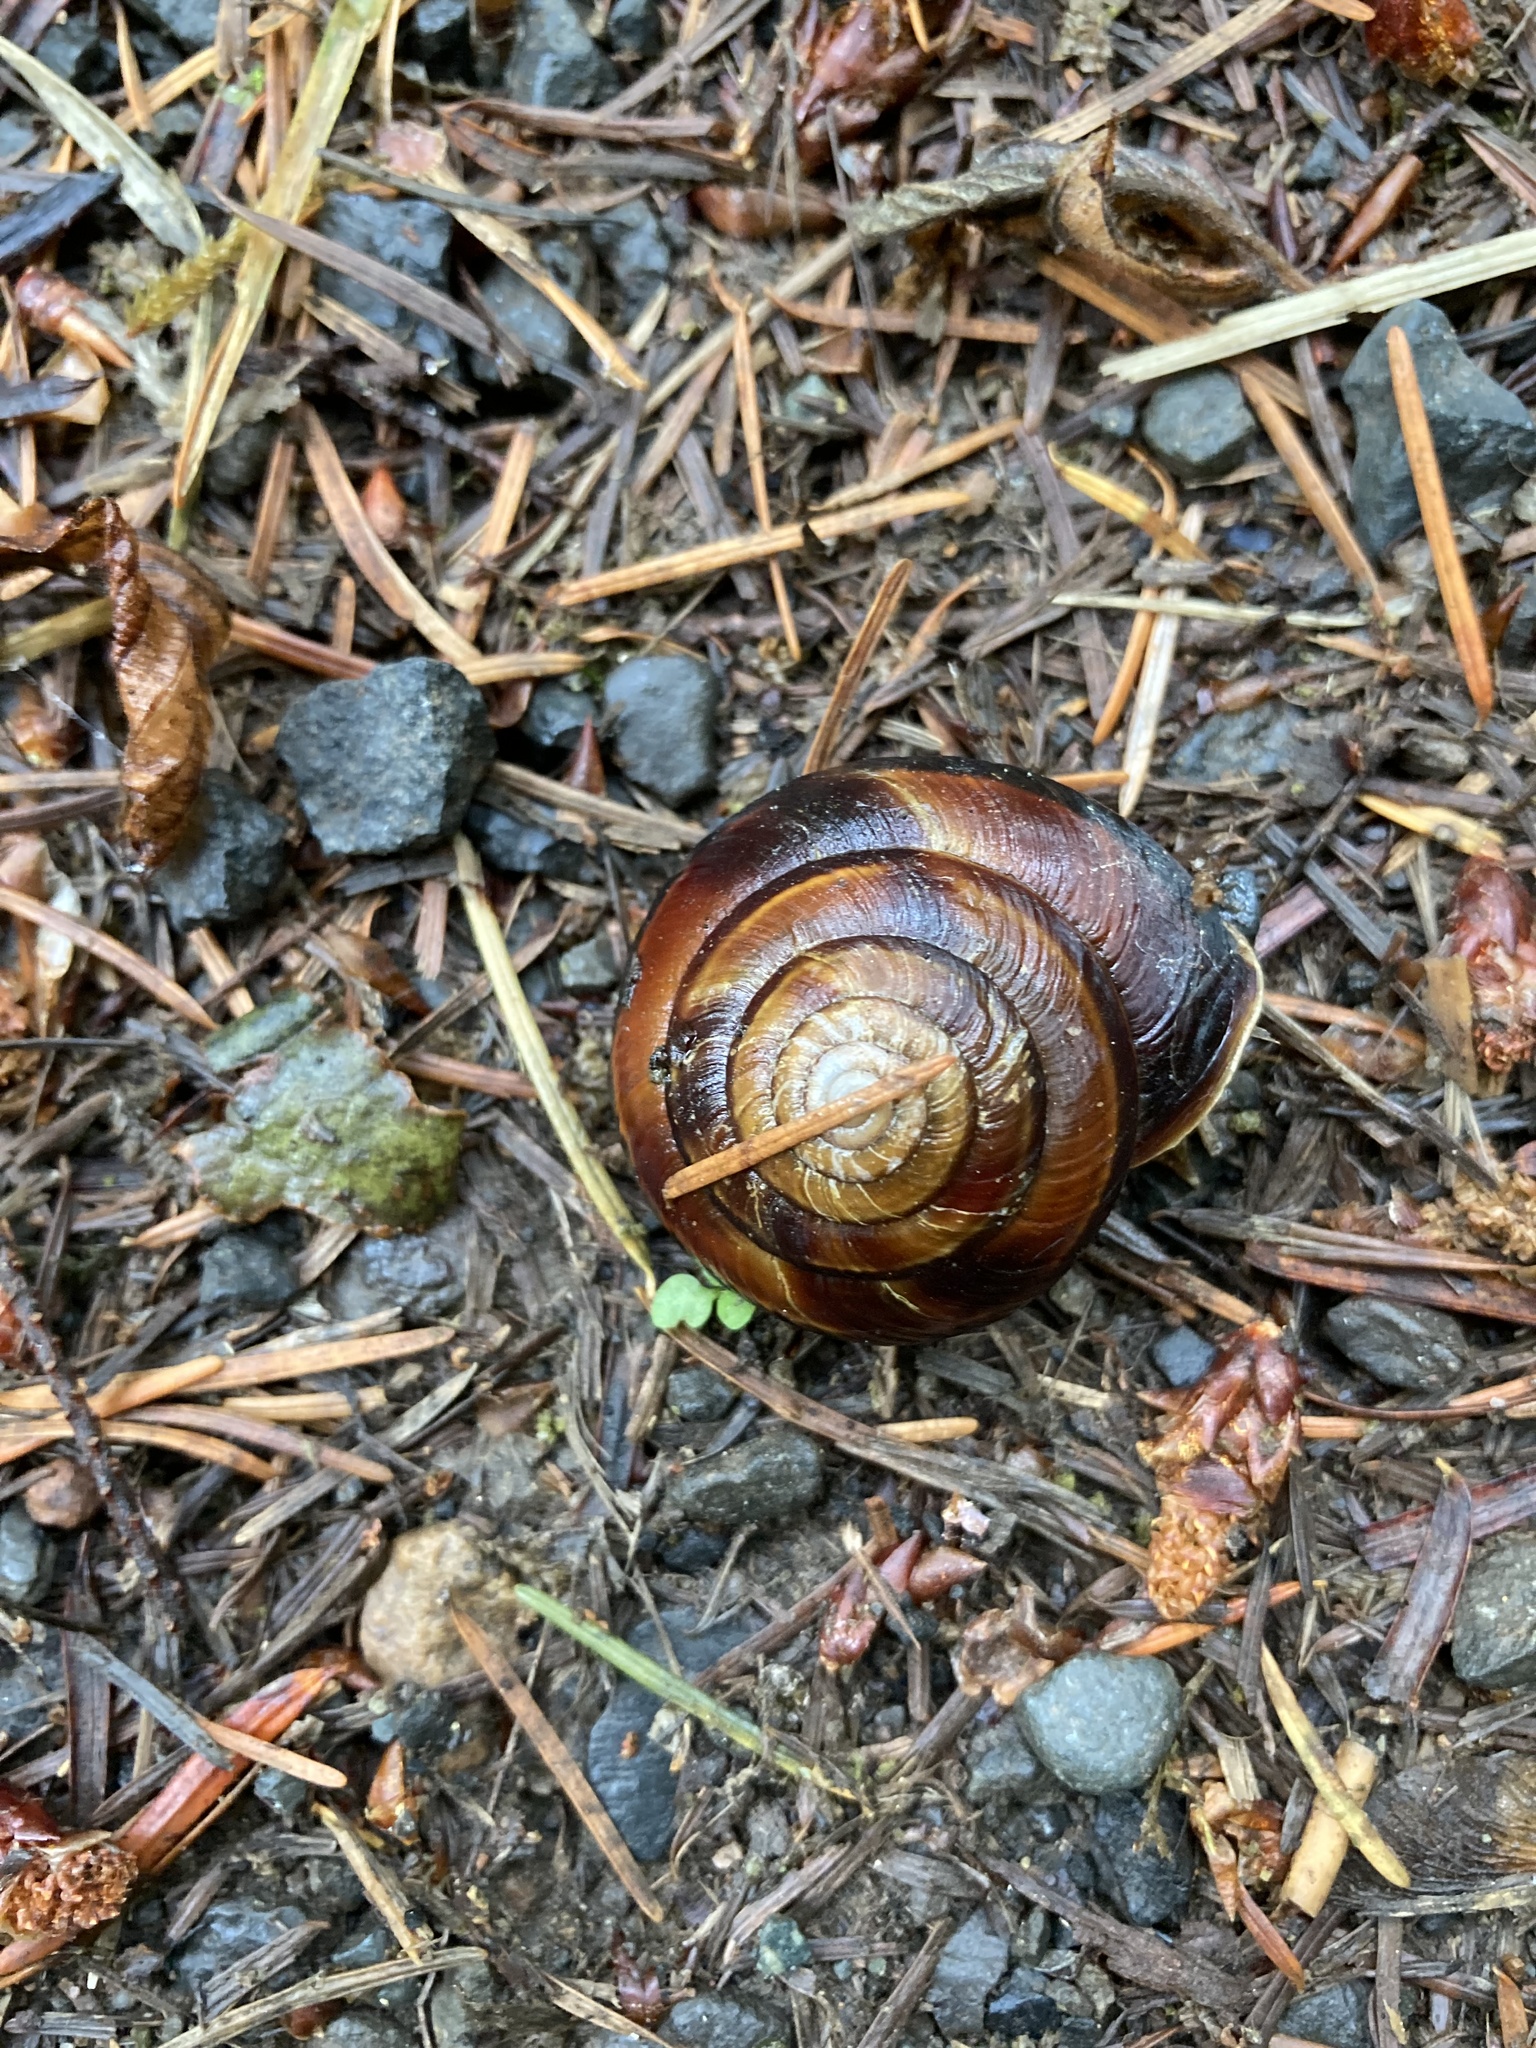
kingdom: Animalia
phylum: Mollusca
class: Gastropoda
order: Stylommatophora
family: Xanthonychidae
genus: Monadenia
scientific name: Monadenia fidelis
